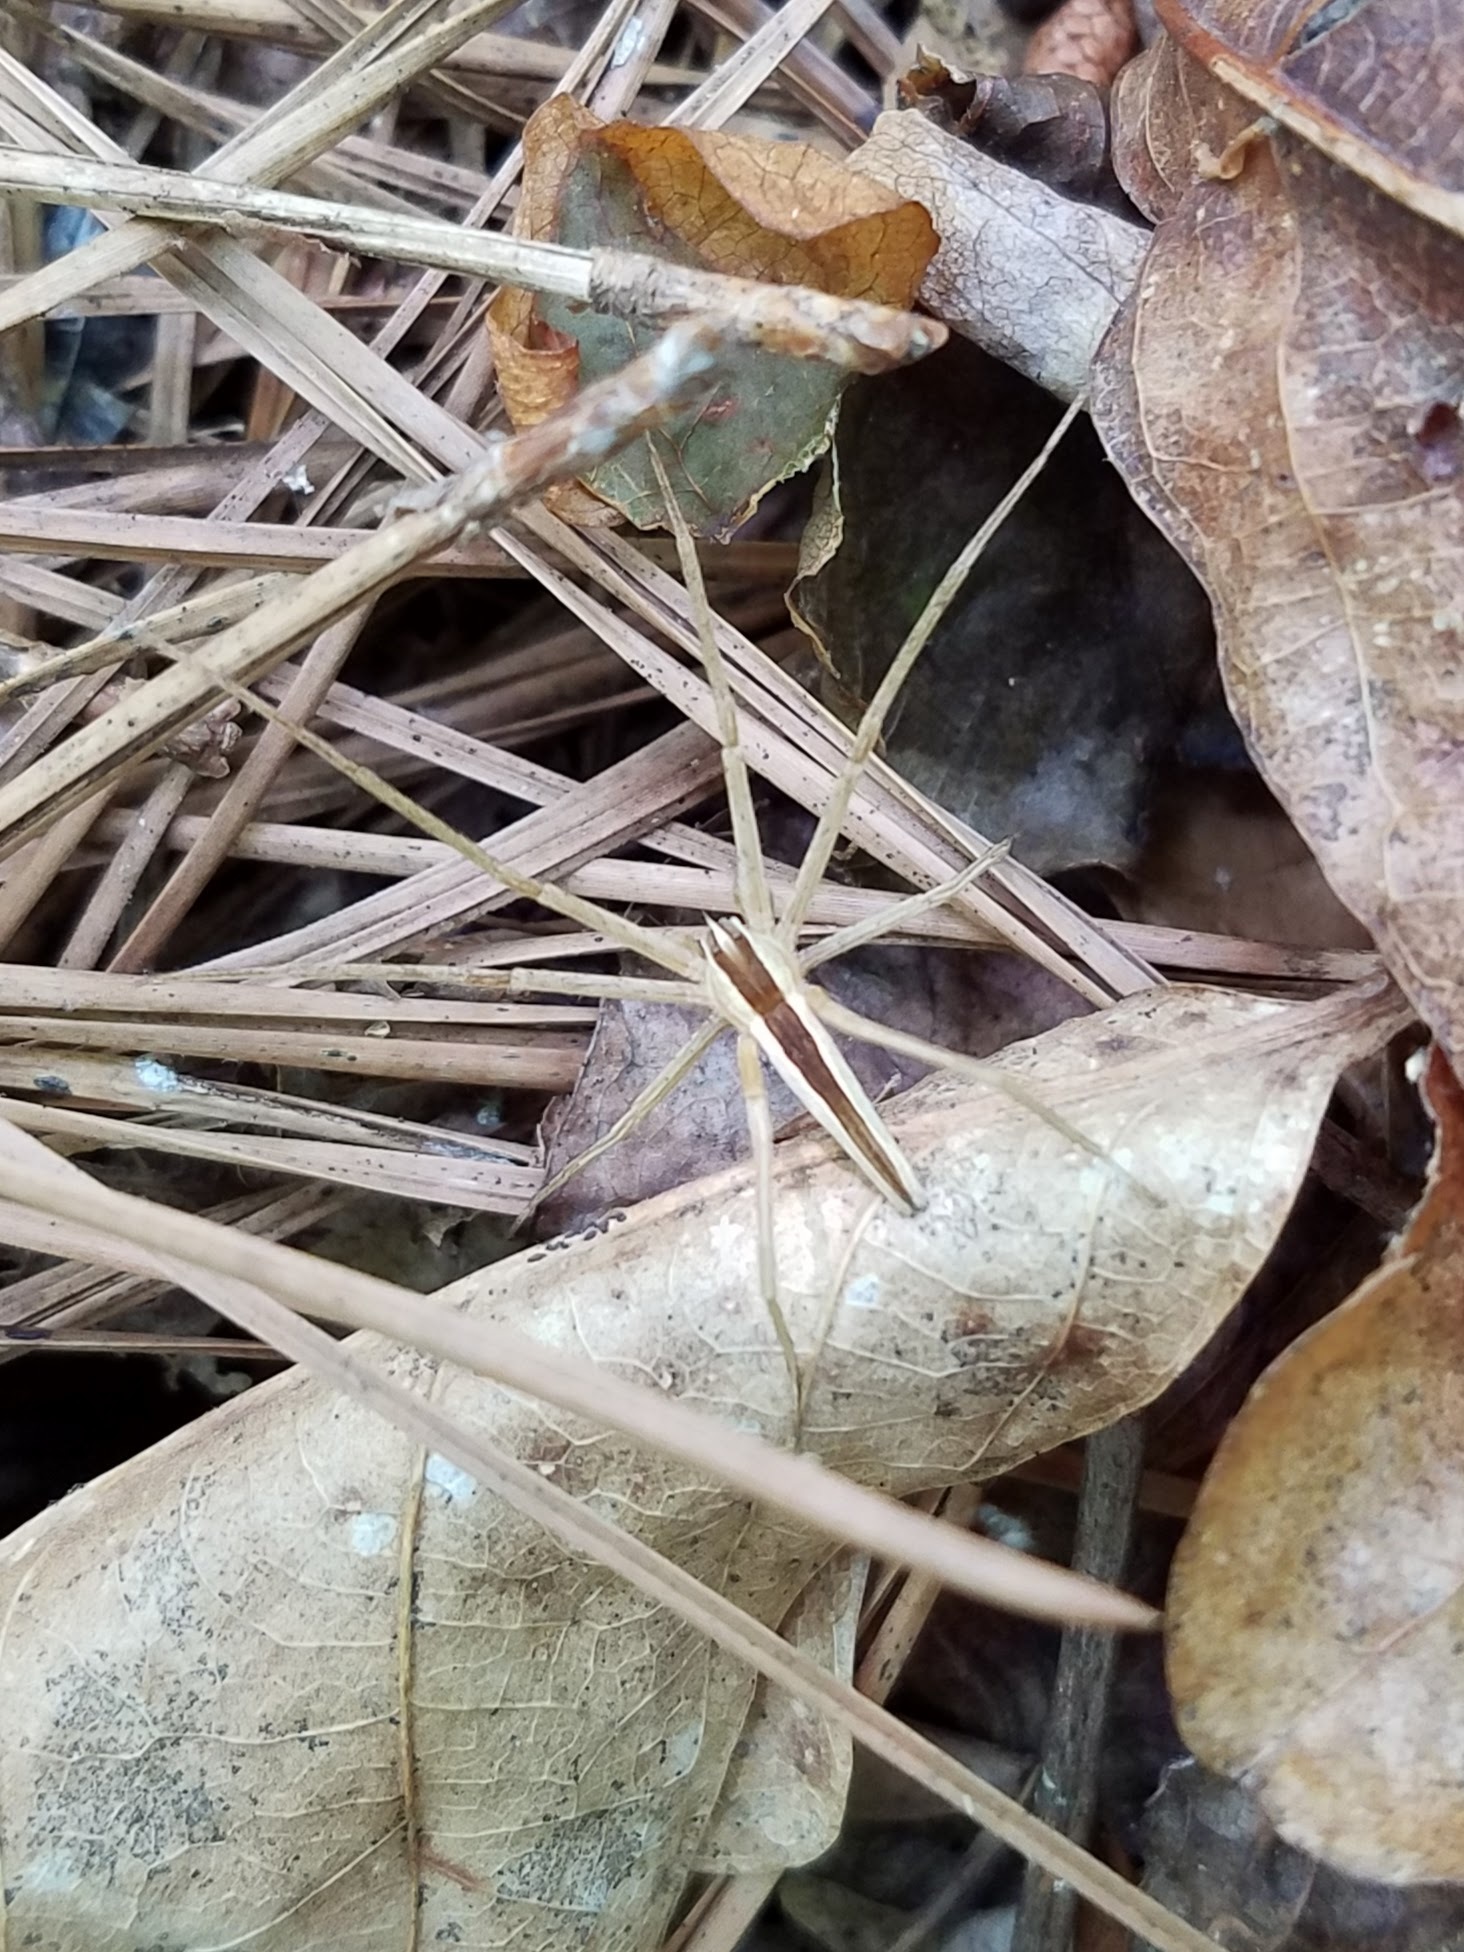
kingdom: Animalia
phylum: Arthropoda
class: Arachnida
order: Araneae
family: Pisauridae
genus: Pisaurina
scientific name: Pisaurina dubia
